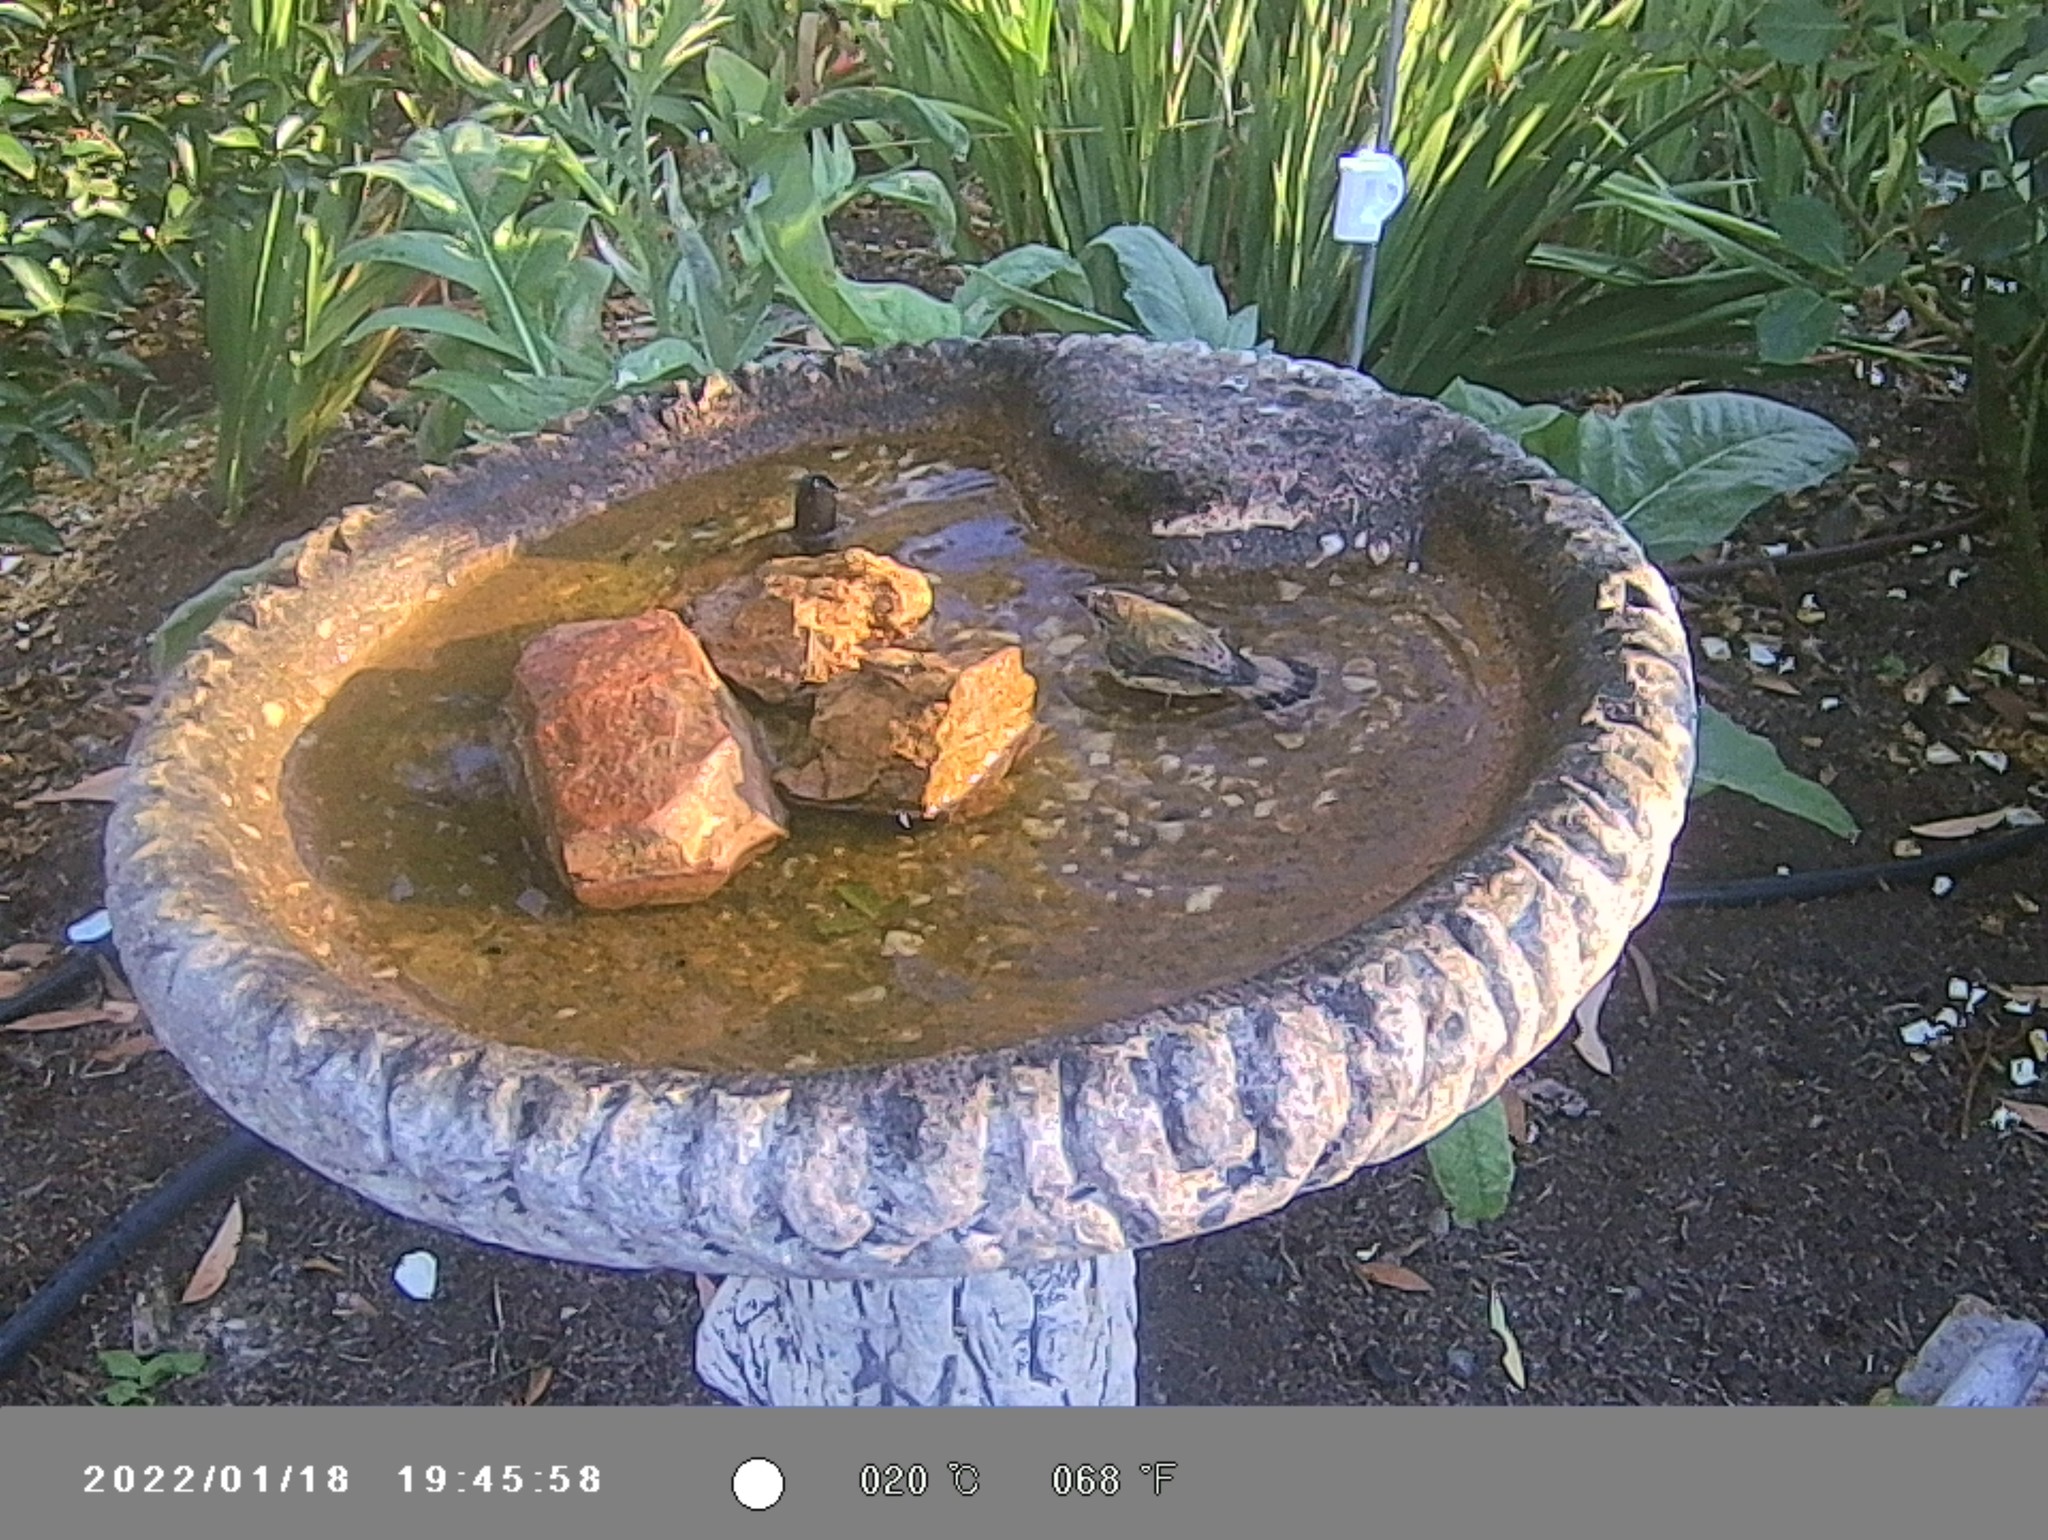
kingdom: Animalia
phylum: Chordata
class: Aves
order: Passeriformes
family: Acanthizidae
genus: Acanthiza
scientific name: Acanthiza lineata
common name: Striated thornbill
